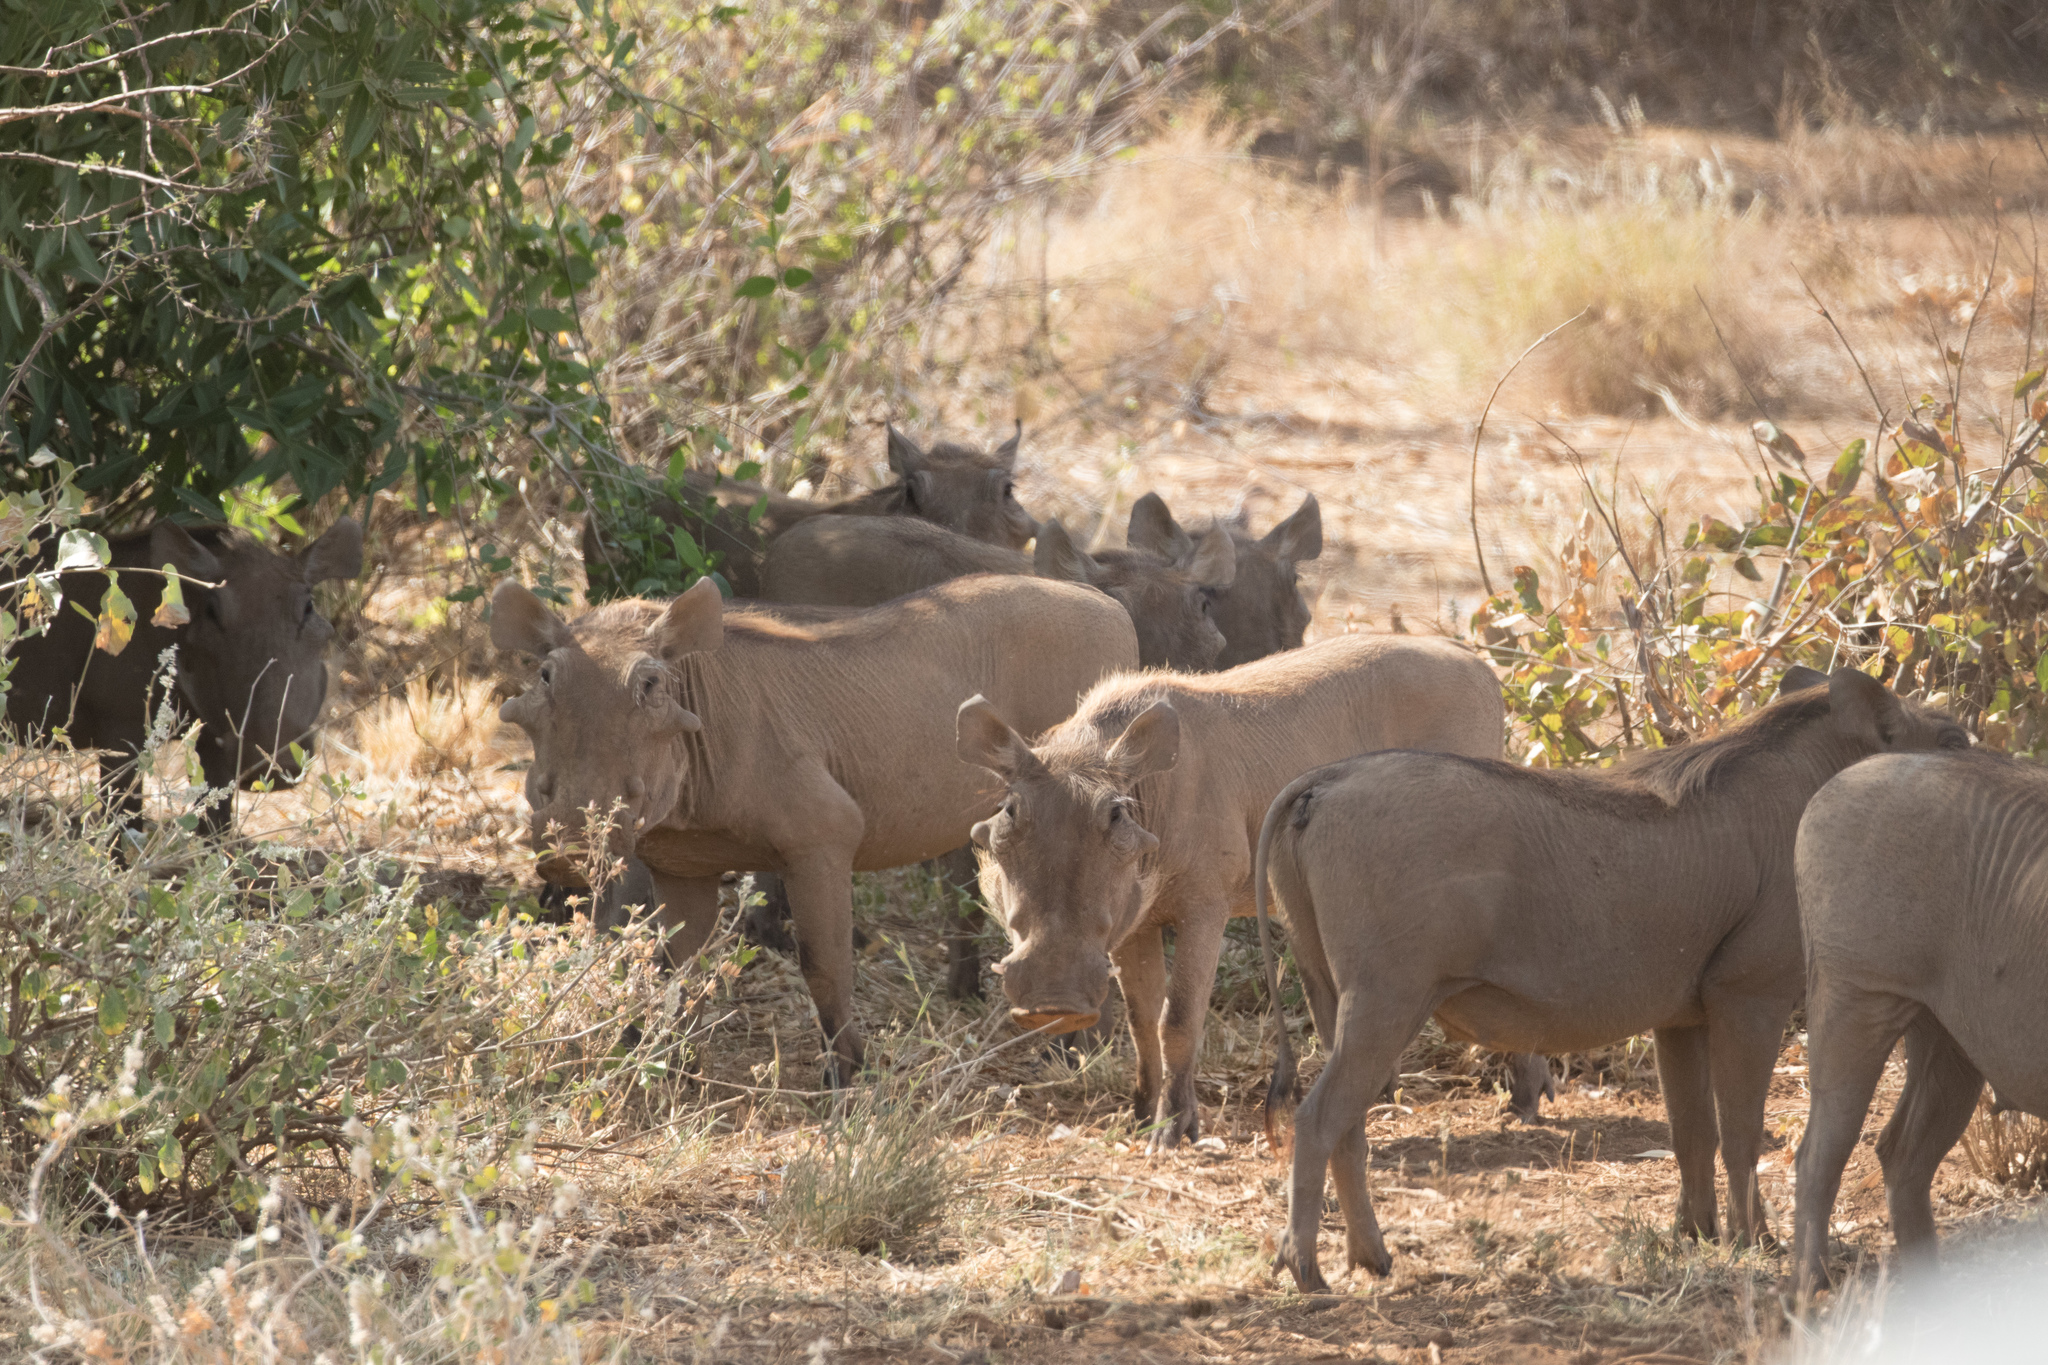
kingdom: Animalia
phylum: Chordata
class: Mammalia
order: Artiodactyla
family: Suidae
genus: Phacochoerus
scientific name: Phacochoerus aethiopicus
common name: Desert warthog
